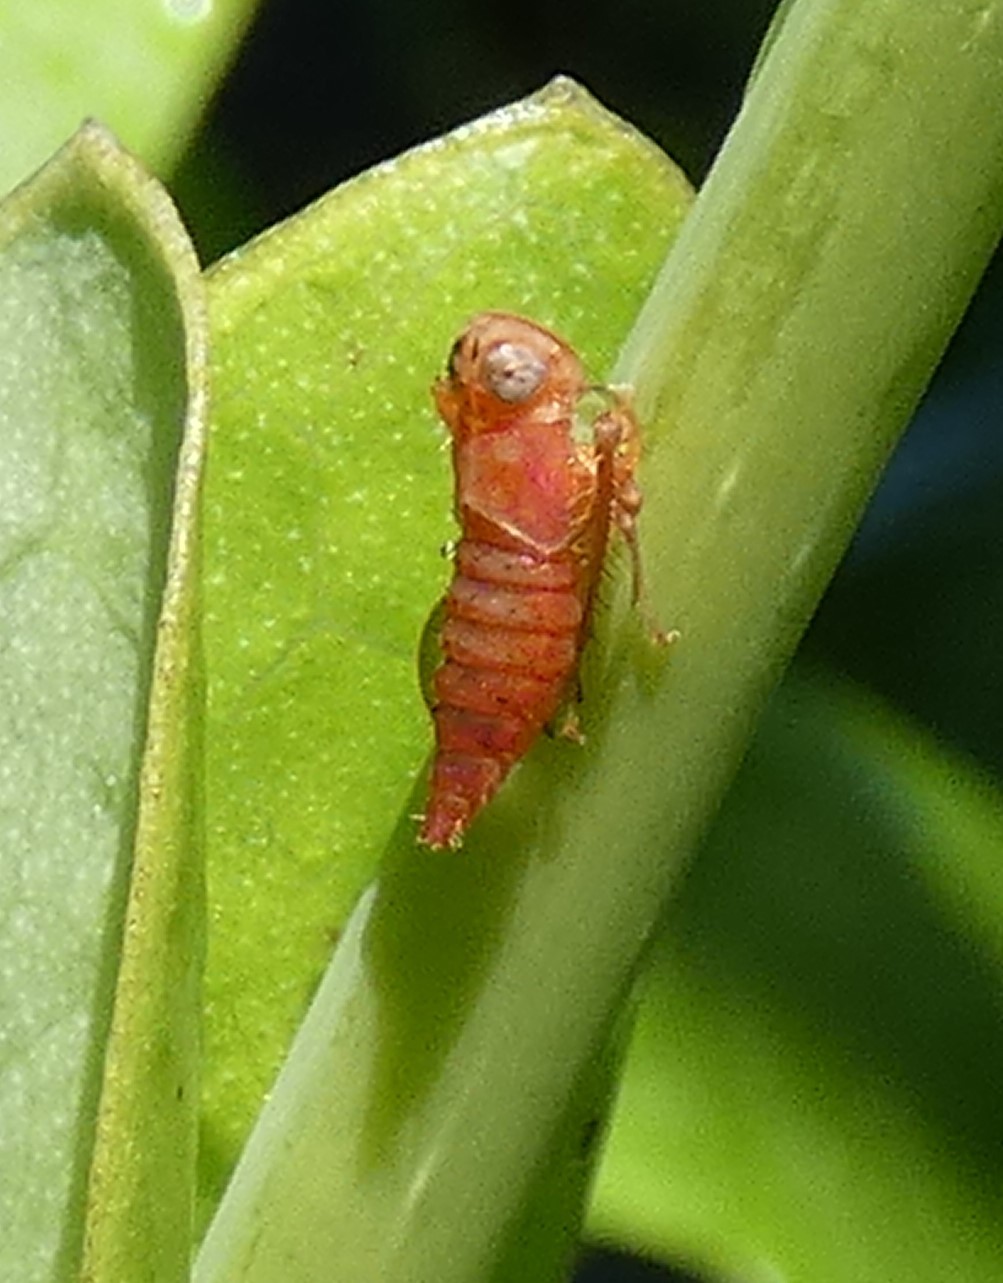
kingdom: Animalia
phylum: Arthropoda
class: Insecta
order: Hemiptera
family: Cicadellidae
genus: Jikradia
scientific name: Jikradia olitoria
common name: Coppery leafhopper
